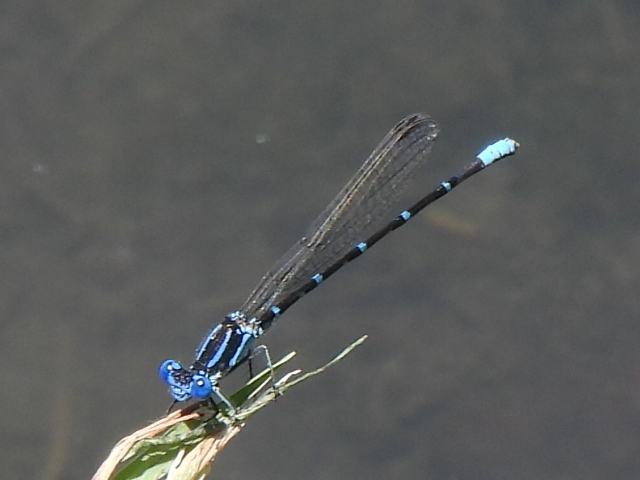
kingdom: Animalia
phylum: Arthropoda
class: Insecta
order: Odonata
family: Coenagrionidae
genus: Argia
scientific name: Argia sedula
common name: Blue-ringed dancer
